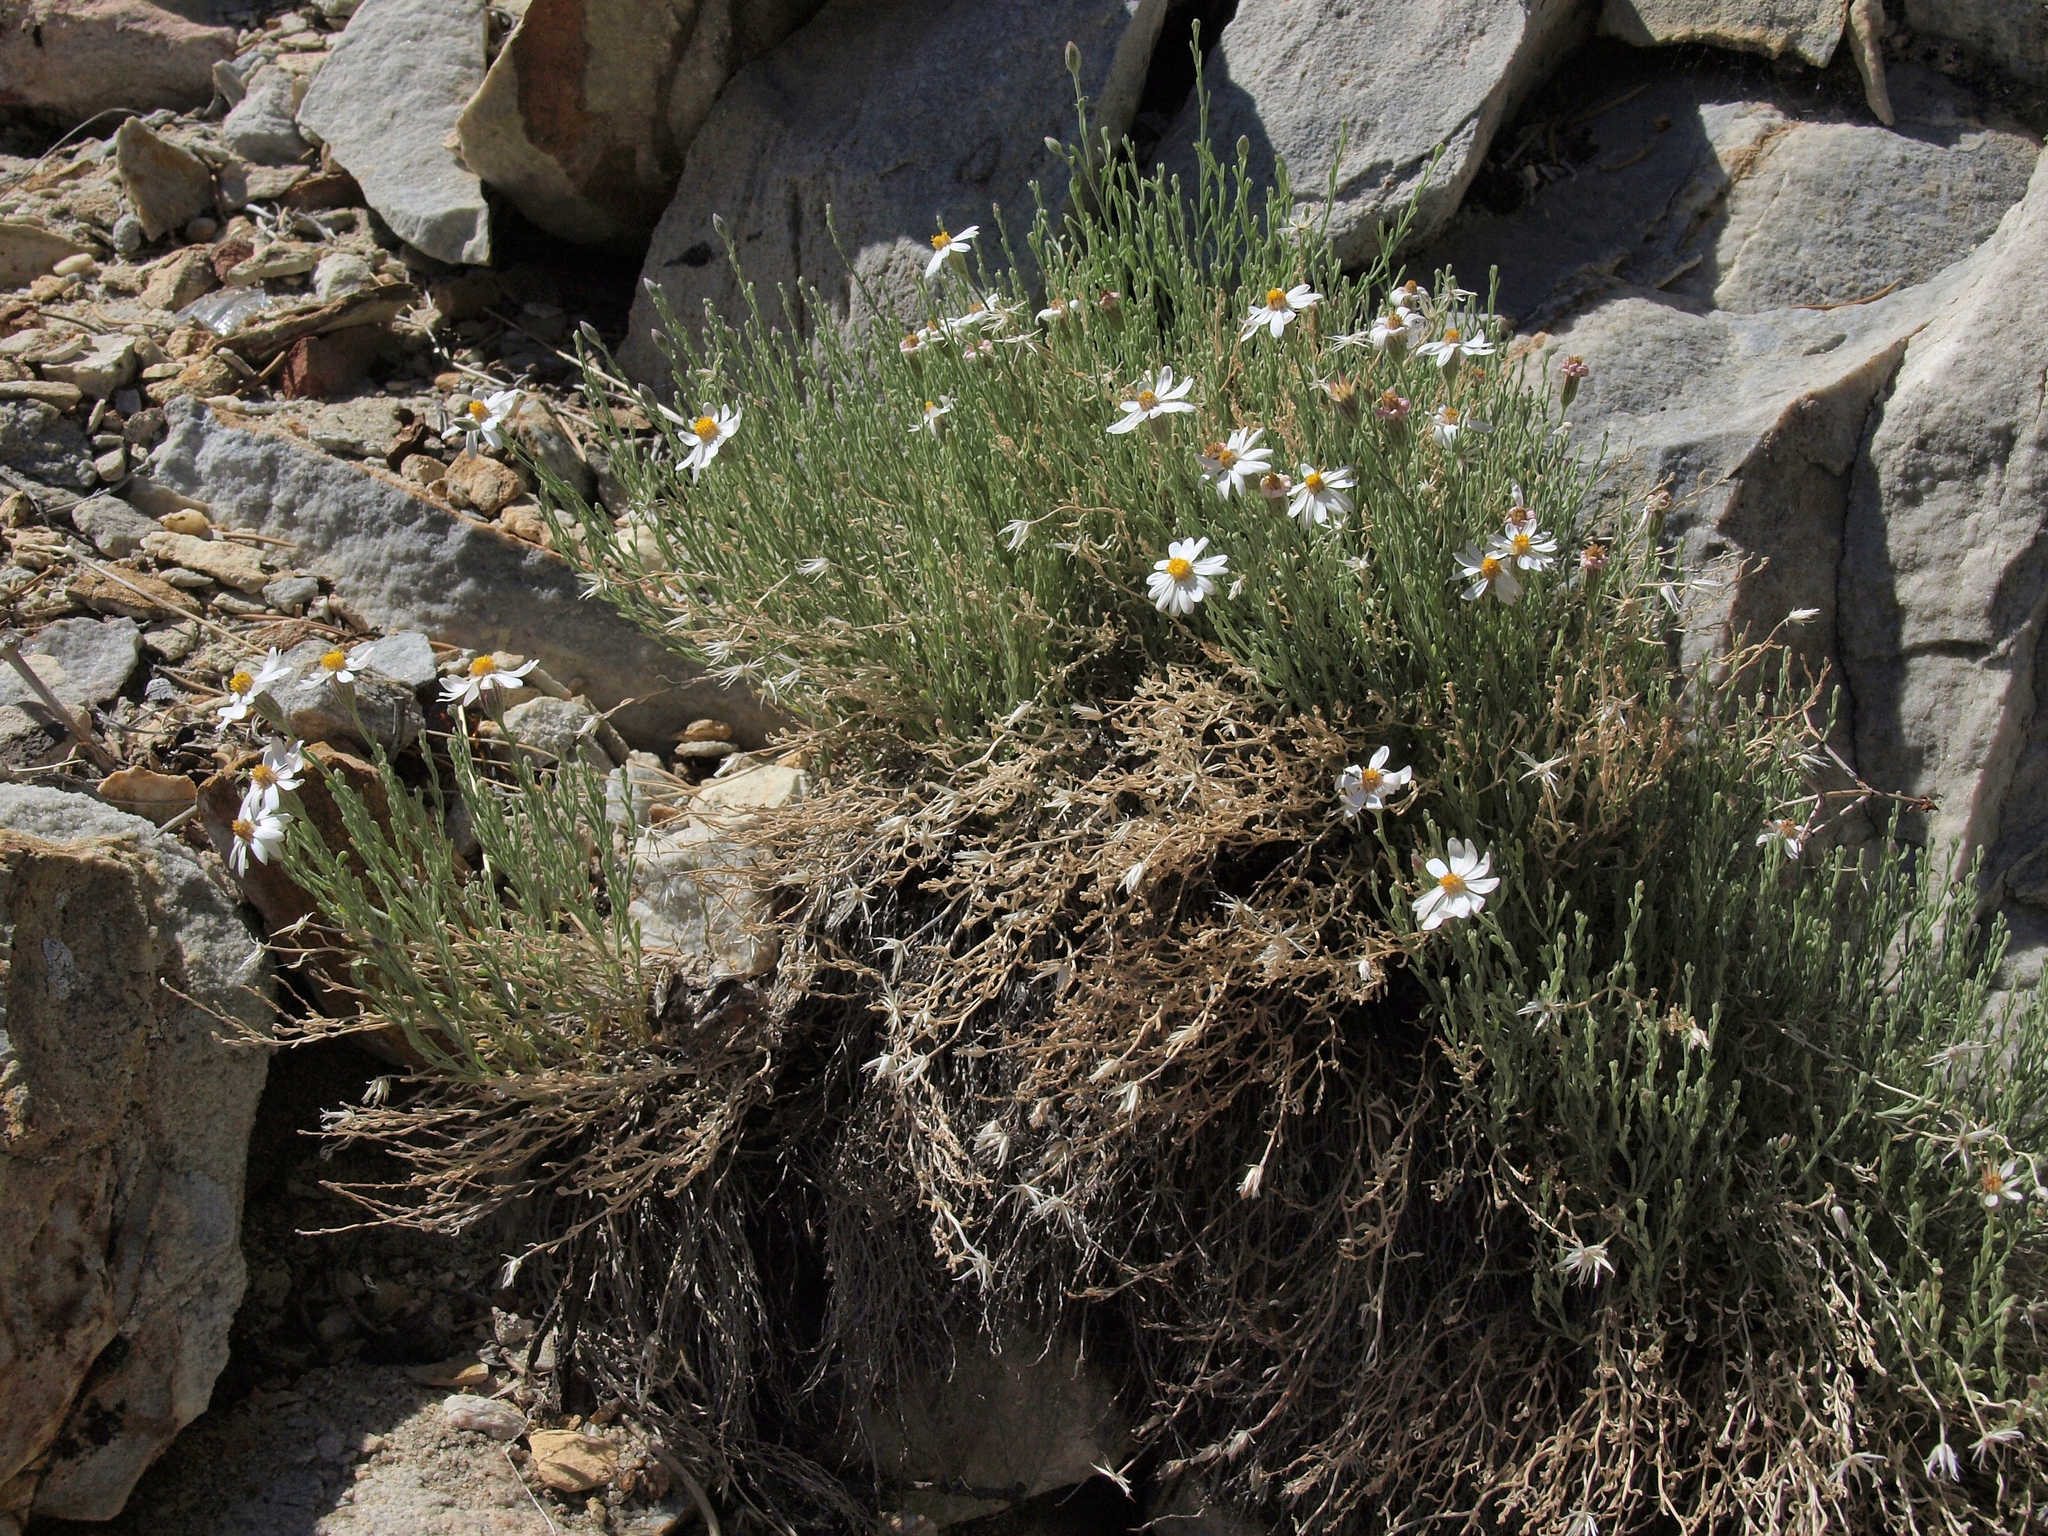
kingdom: Plantae
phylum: Tracheophyta
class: Magnoliopsida
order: Asterales
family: Asteraceae
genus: Chaetopappa
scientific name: Chaetopappa ericoides
